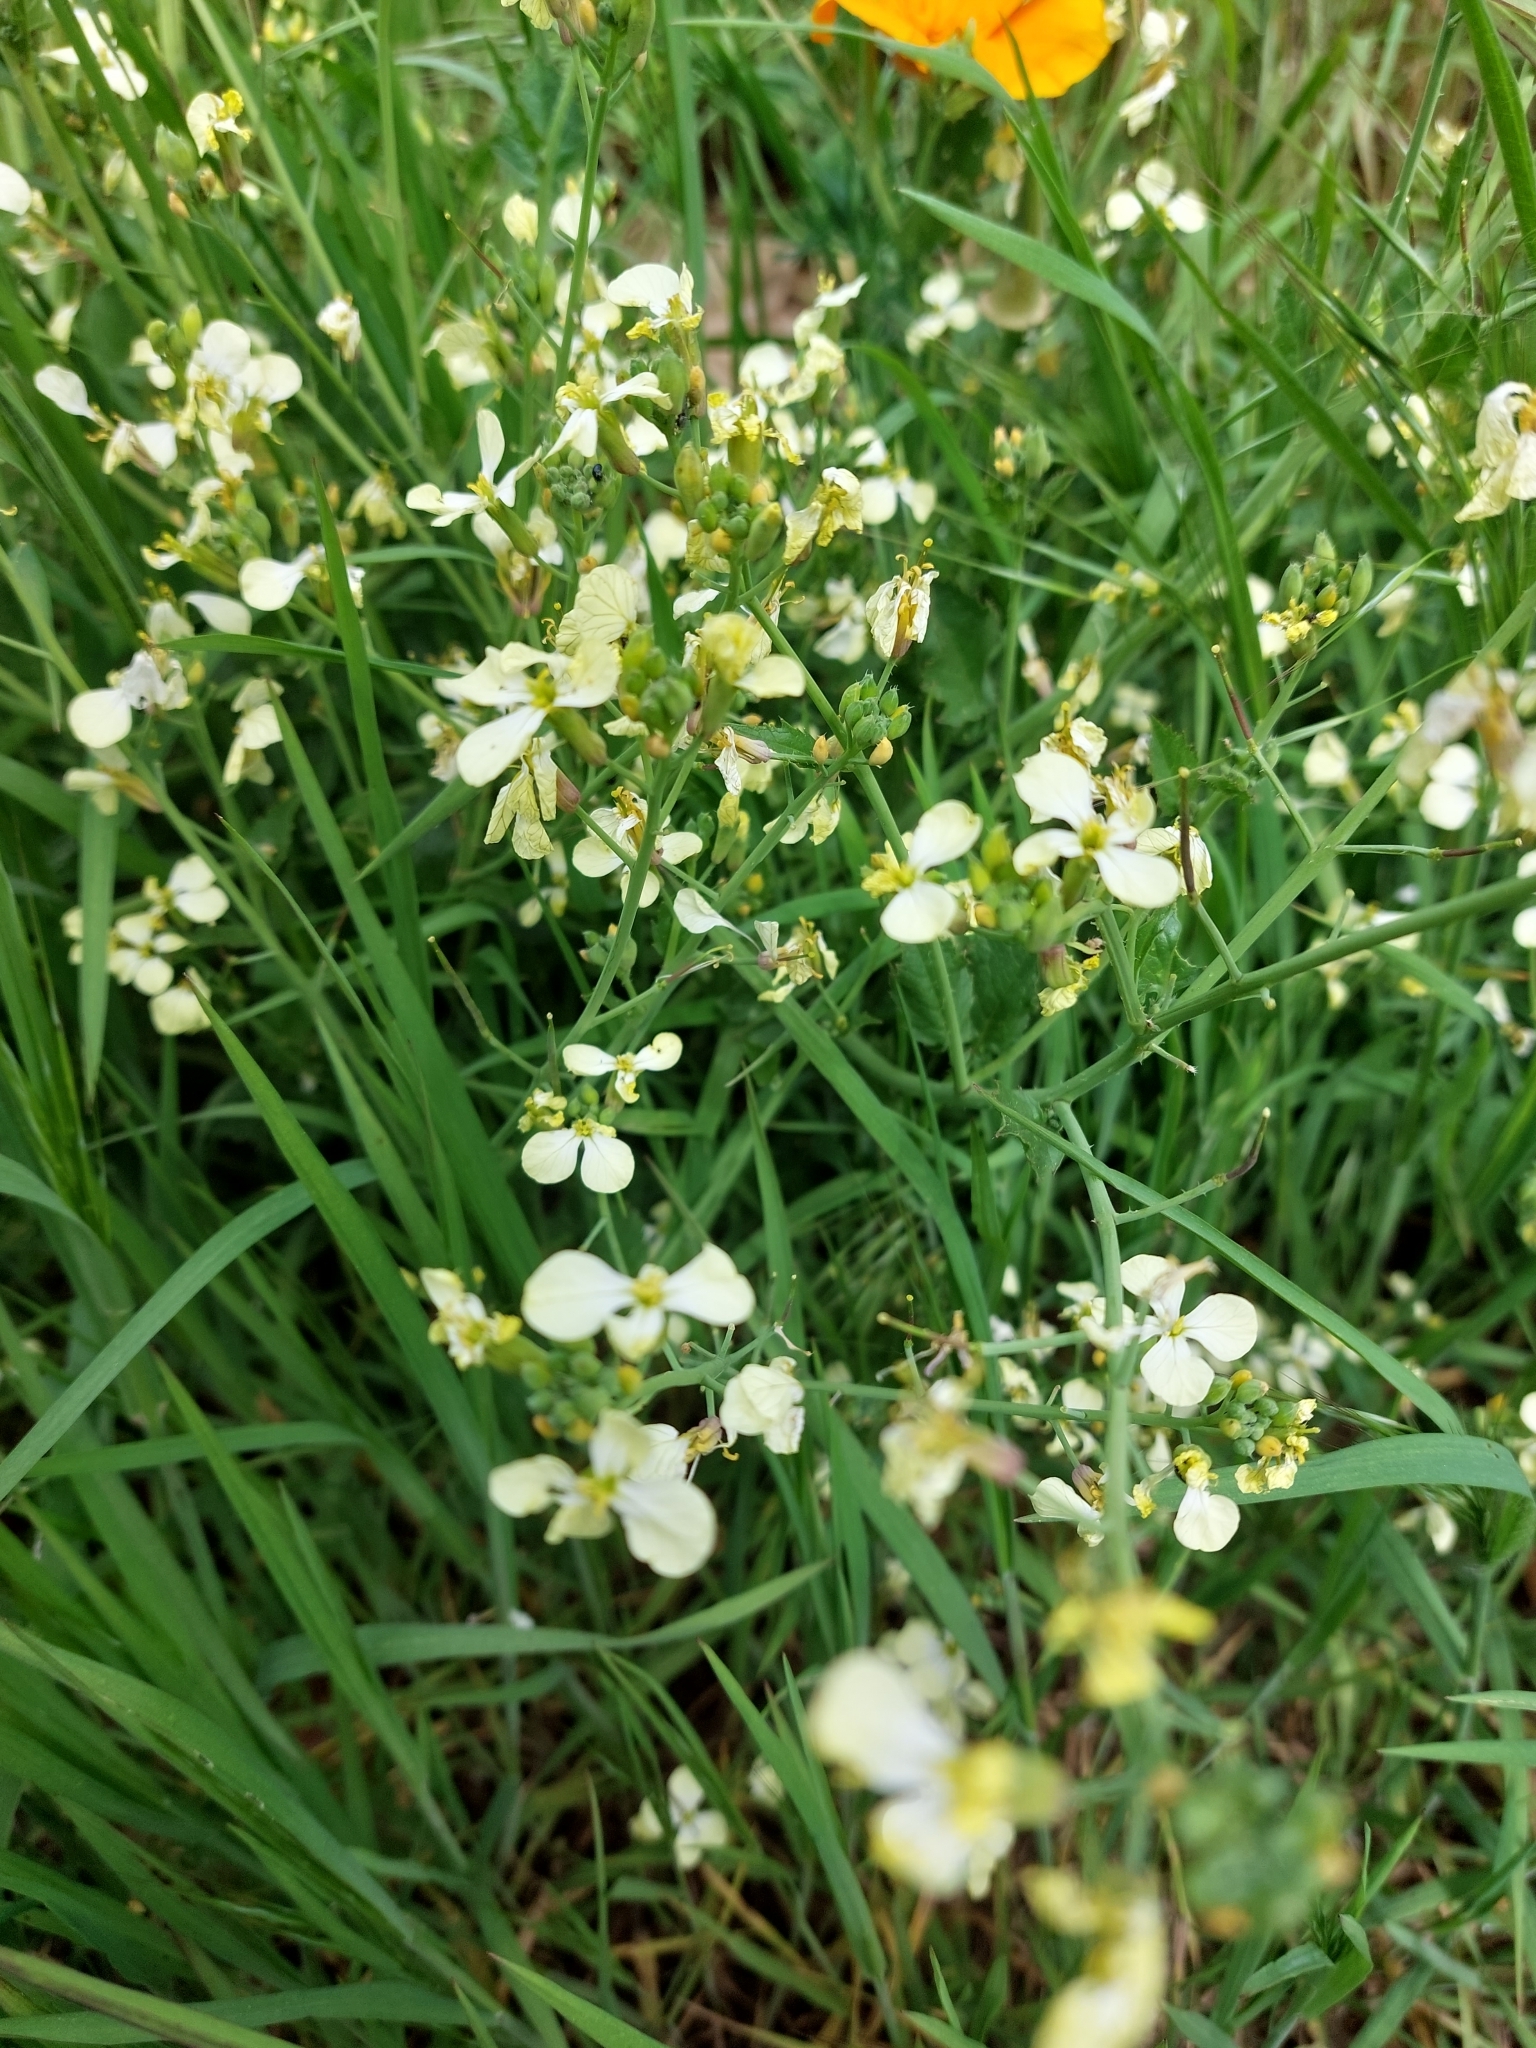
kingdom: Plantae
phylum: Tracheophyta
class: Magnoliopsida
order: Brassicales
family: Brassicaceae
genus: Raphanus
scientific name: Raphanus raphanistrum
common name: Wild radish
